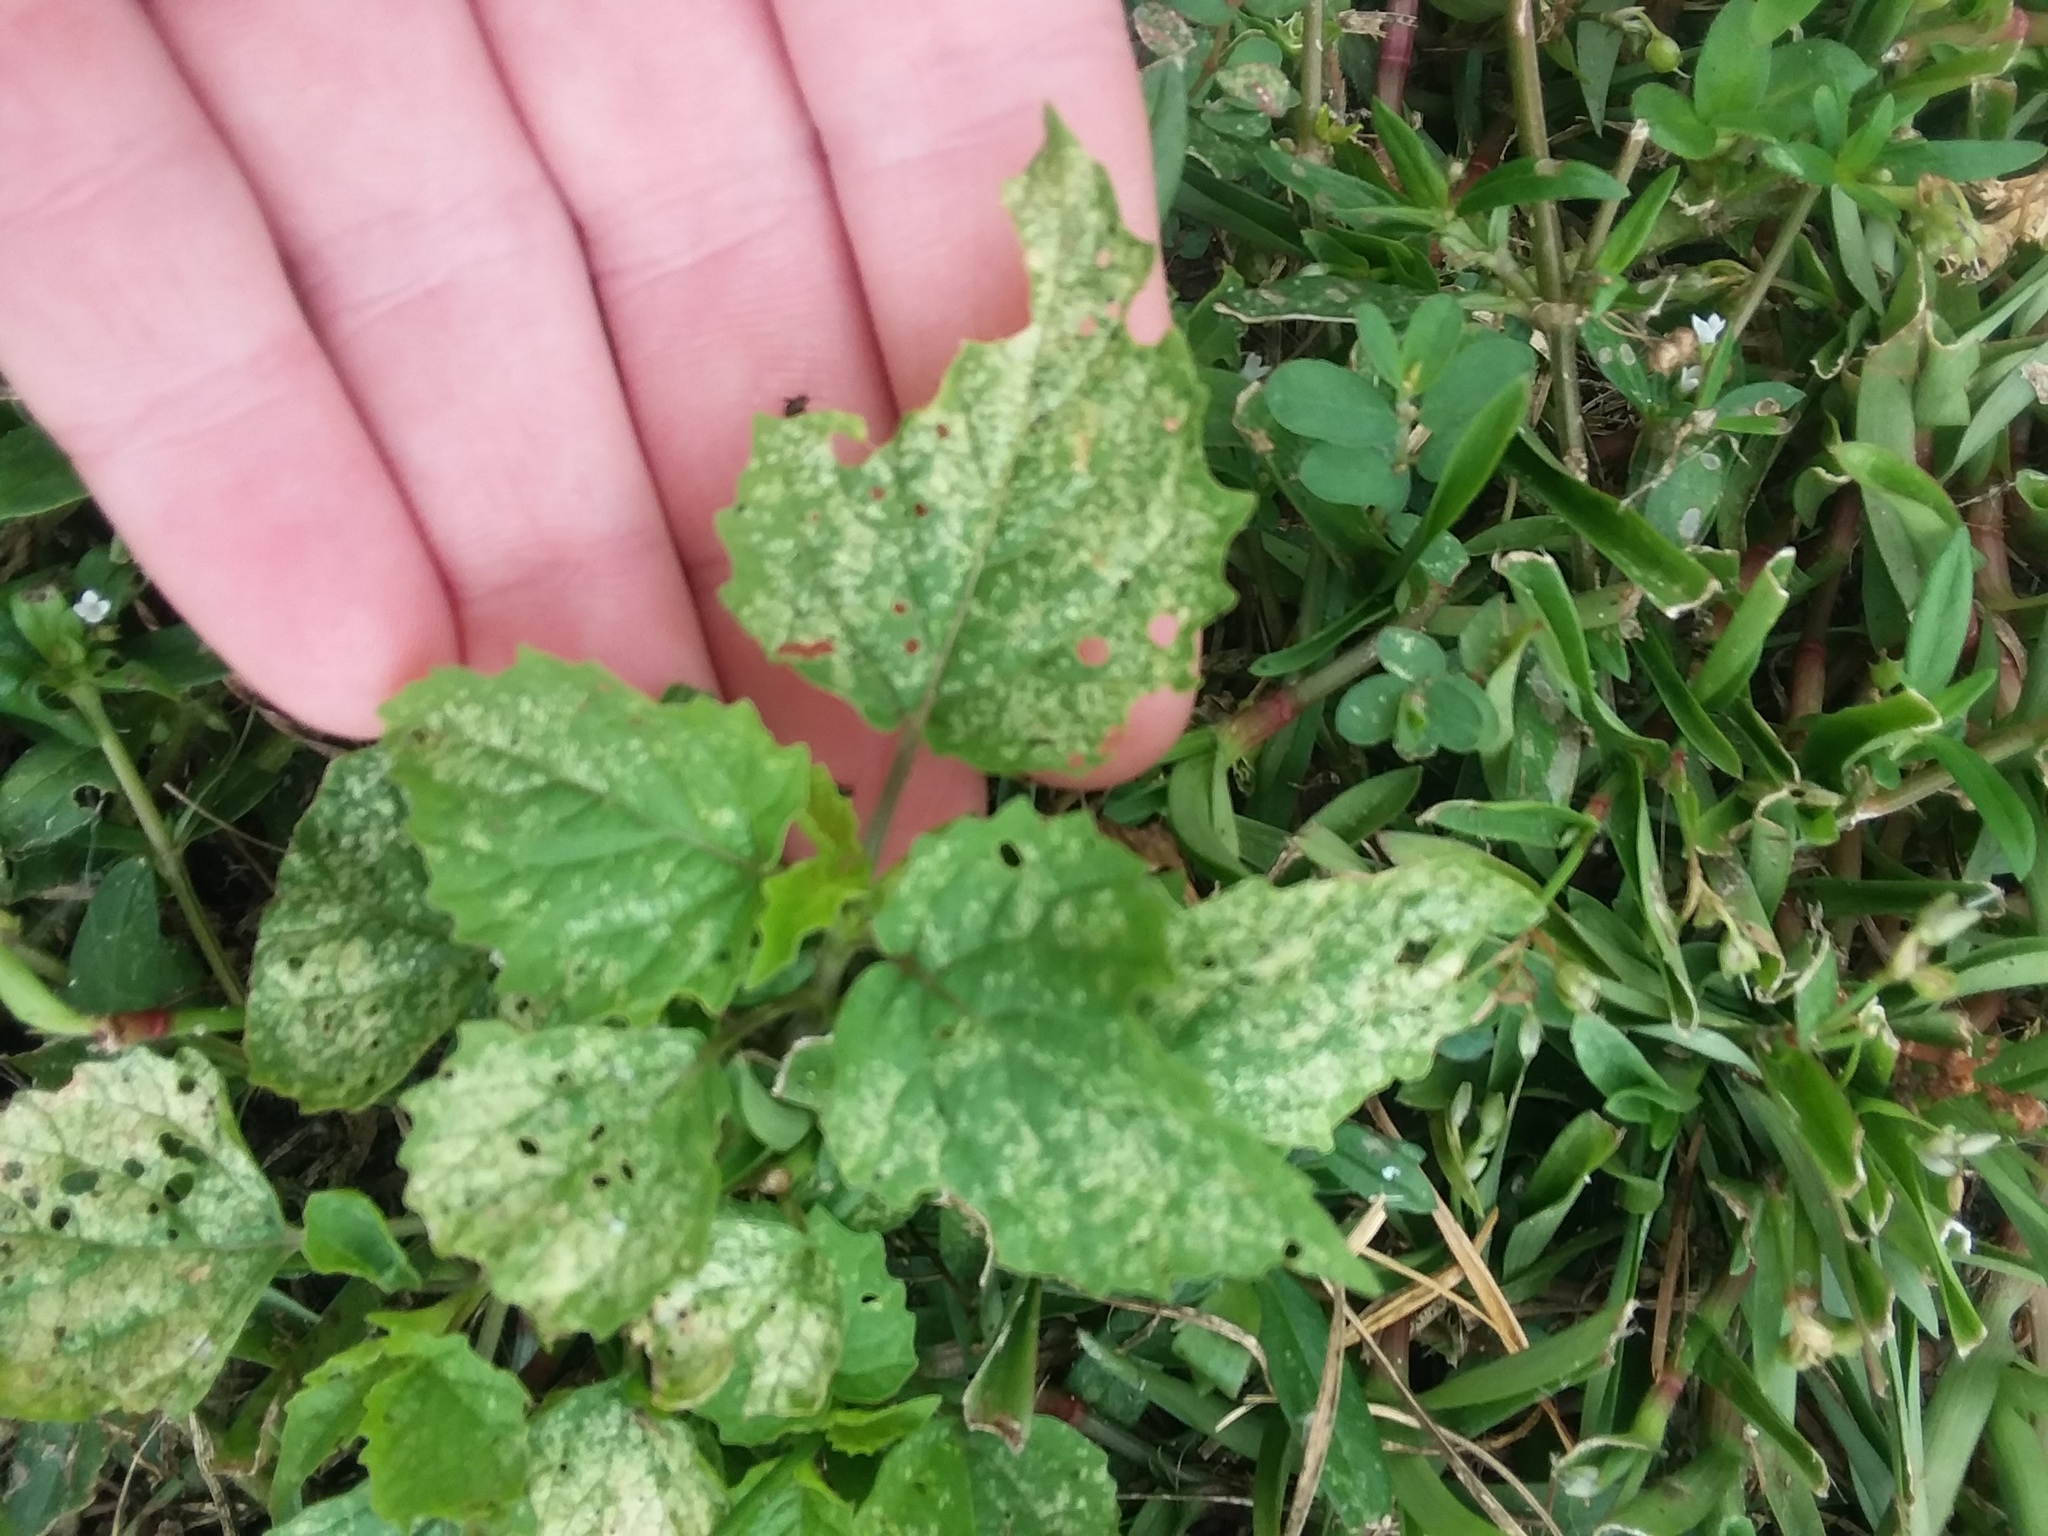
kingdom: Plantae
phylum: Tracheophyta
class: Magnoliopsida
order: Solanales
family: Solanaceae
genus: Physalis
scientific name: Physalis cordata
